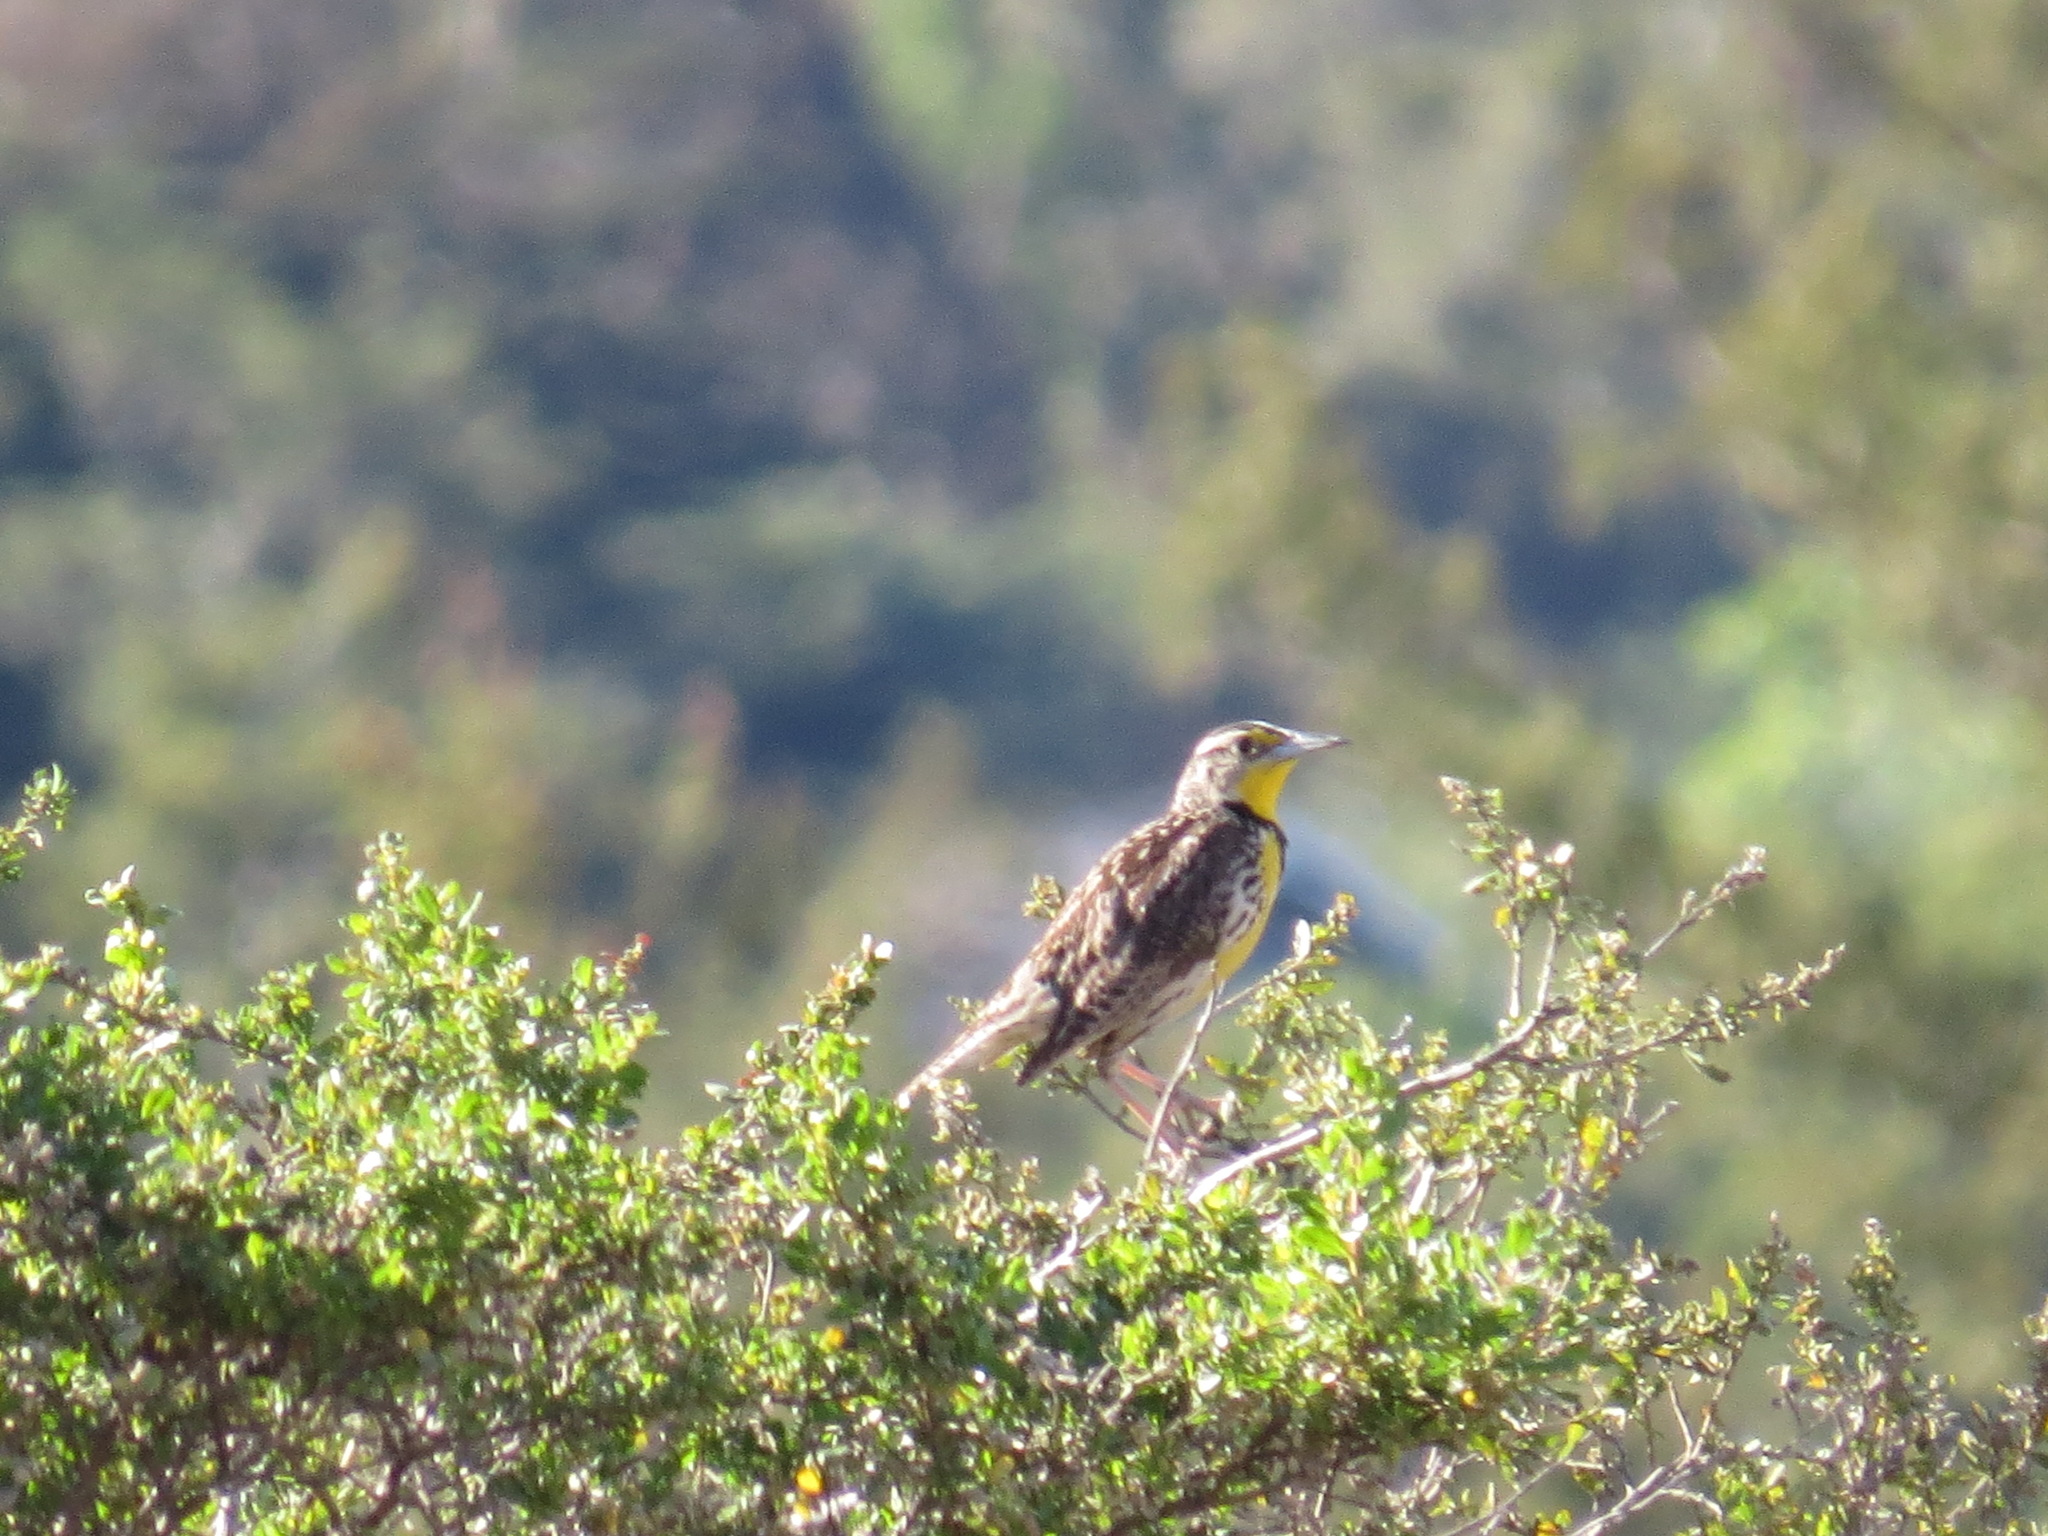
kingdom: Animalia
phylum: Chordata
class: Aves
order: Passeriformes
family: Icteridae
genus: Sturnella
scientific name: Sturnella neglecta
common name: Western meadowlark
